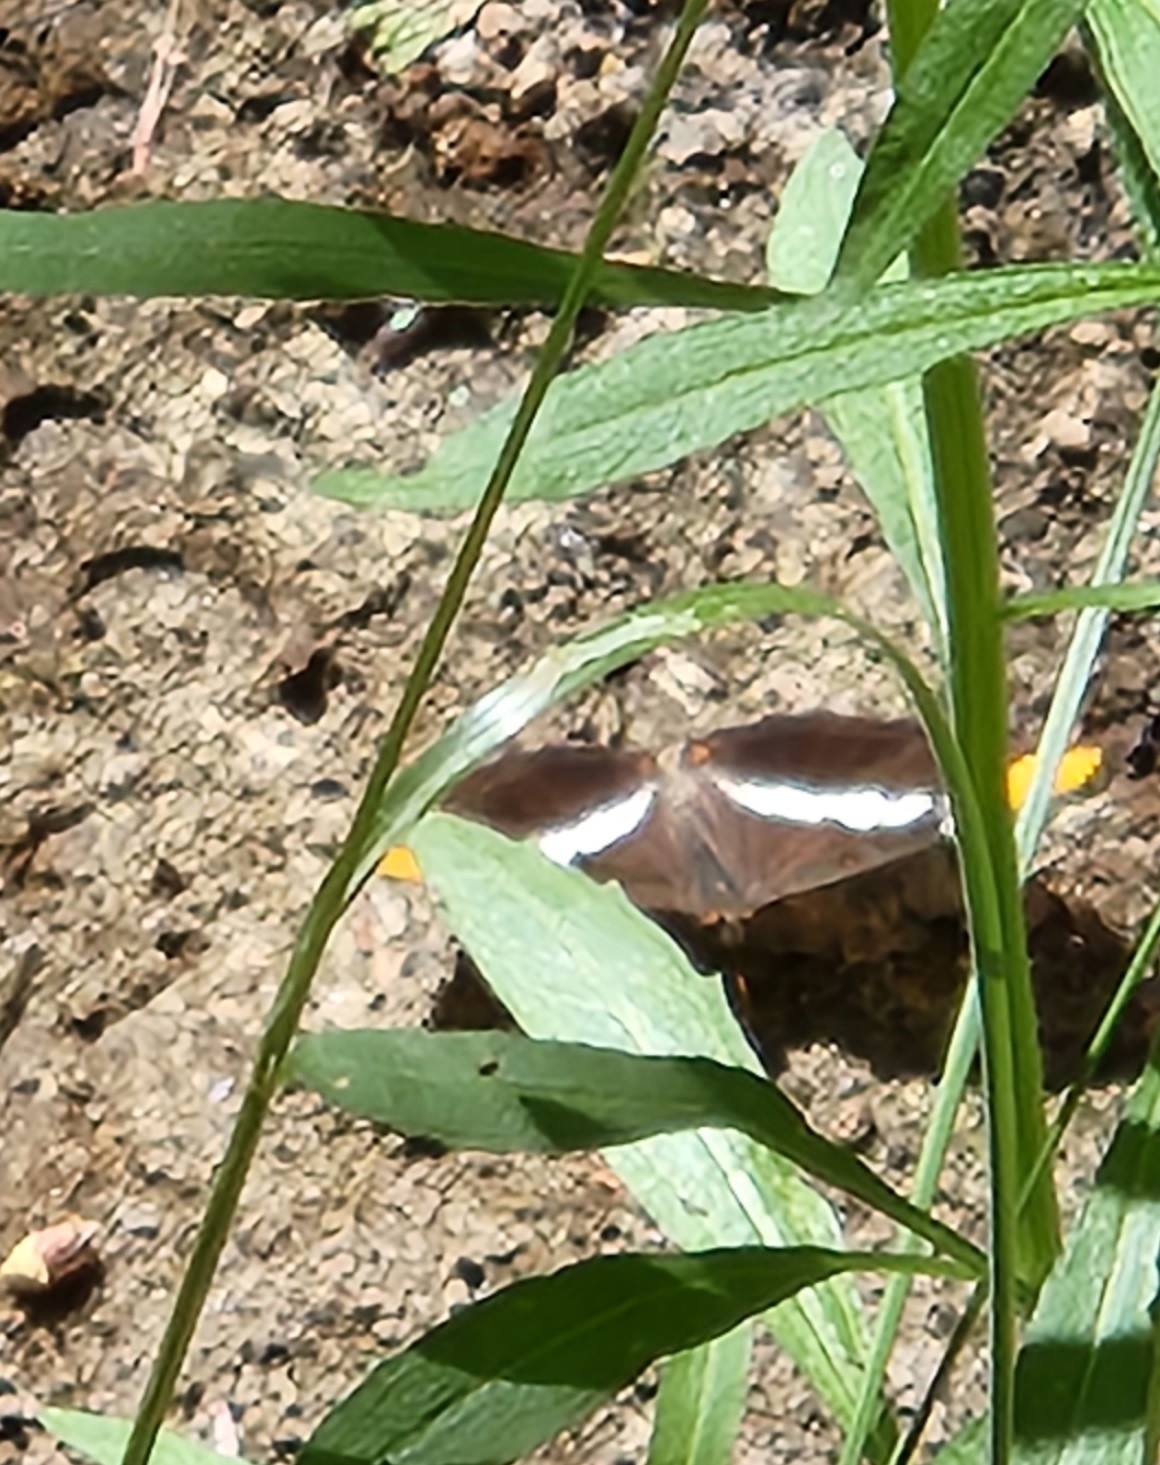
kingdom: Animalia
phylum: Arthropoda
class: Insecta
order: Lepidoptera
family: Nymphalidae
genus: Limenitis
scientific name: Limenitis bredowii
